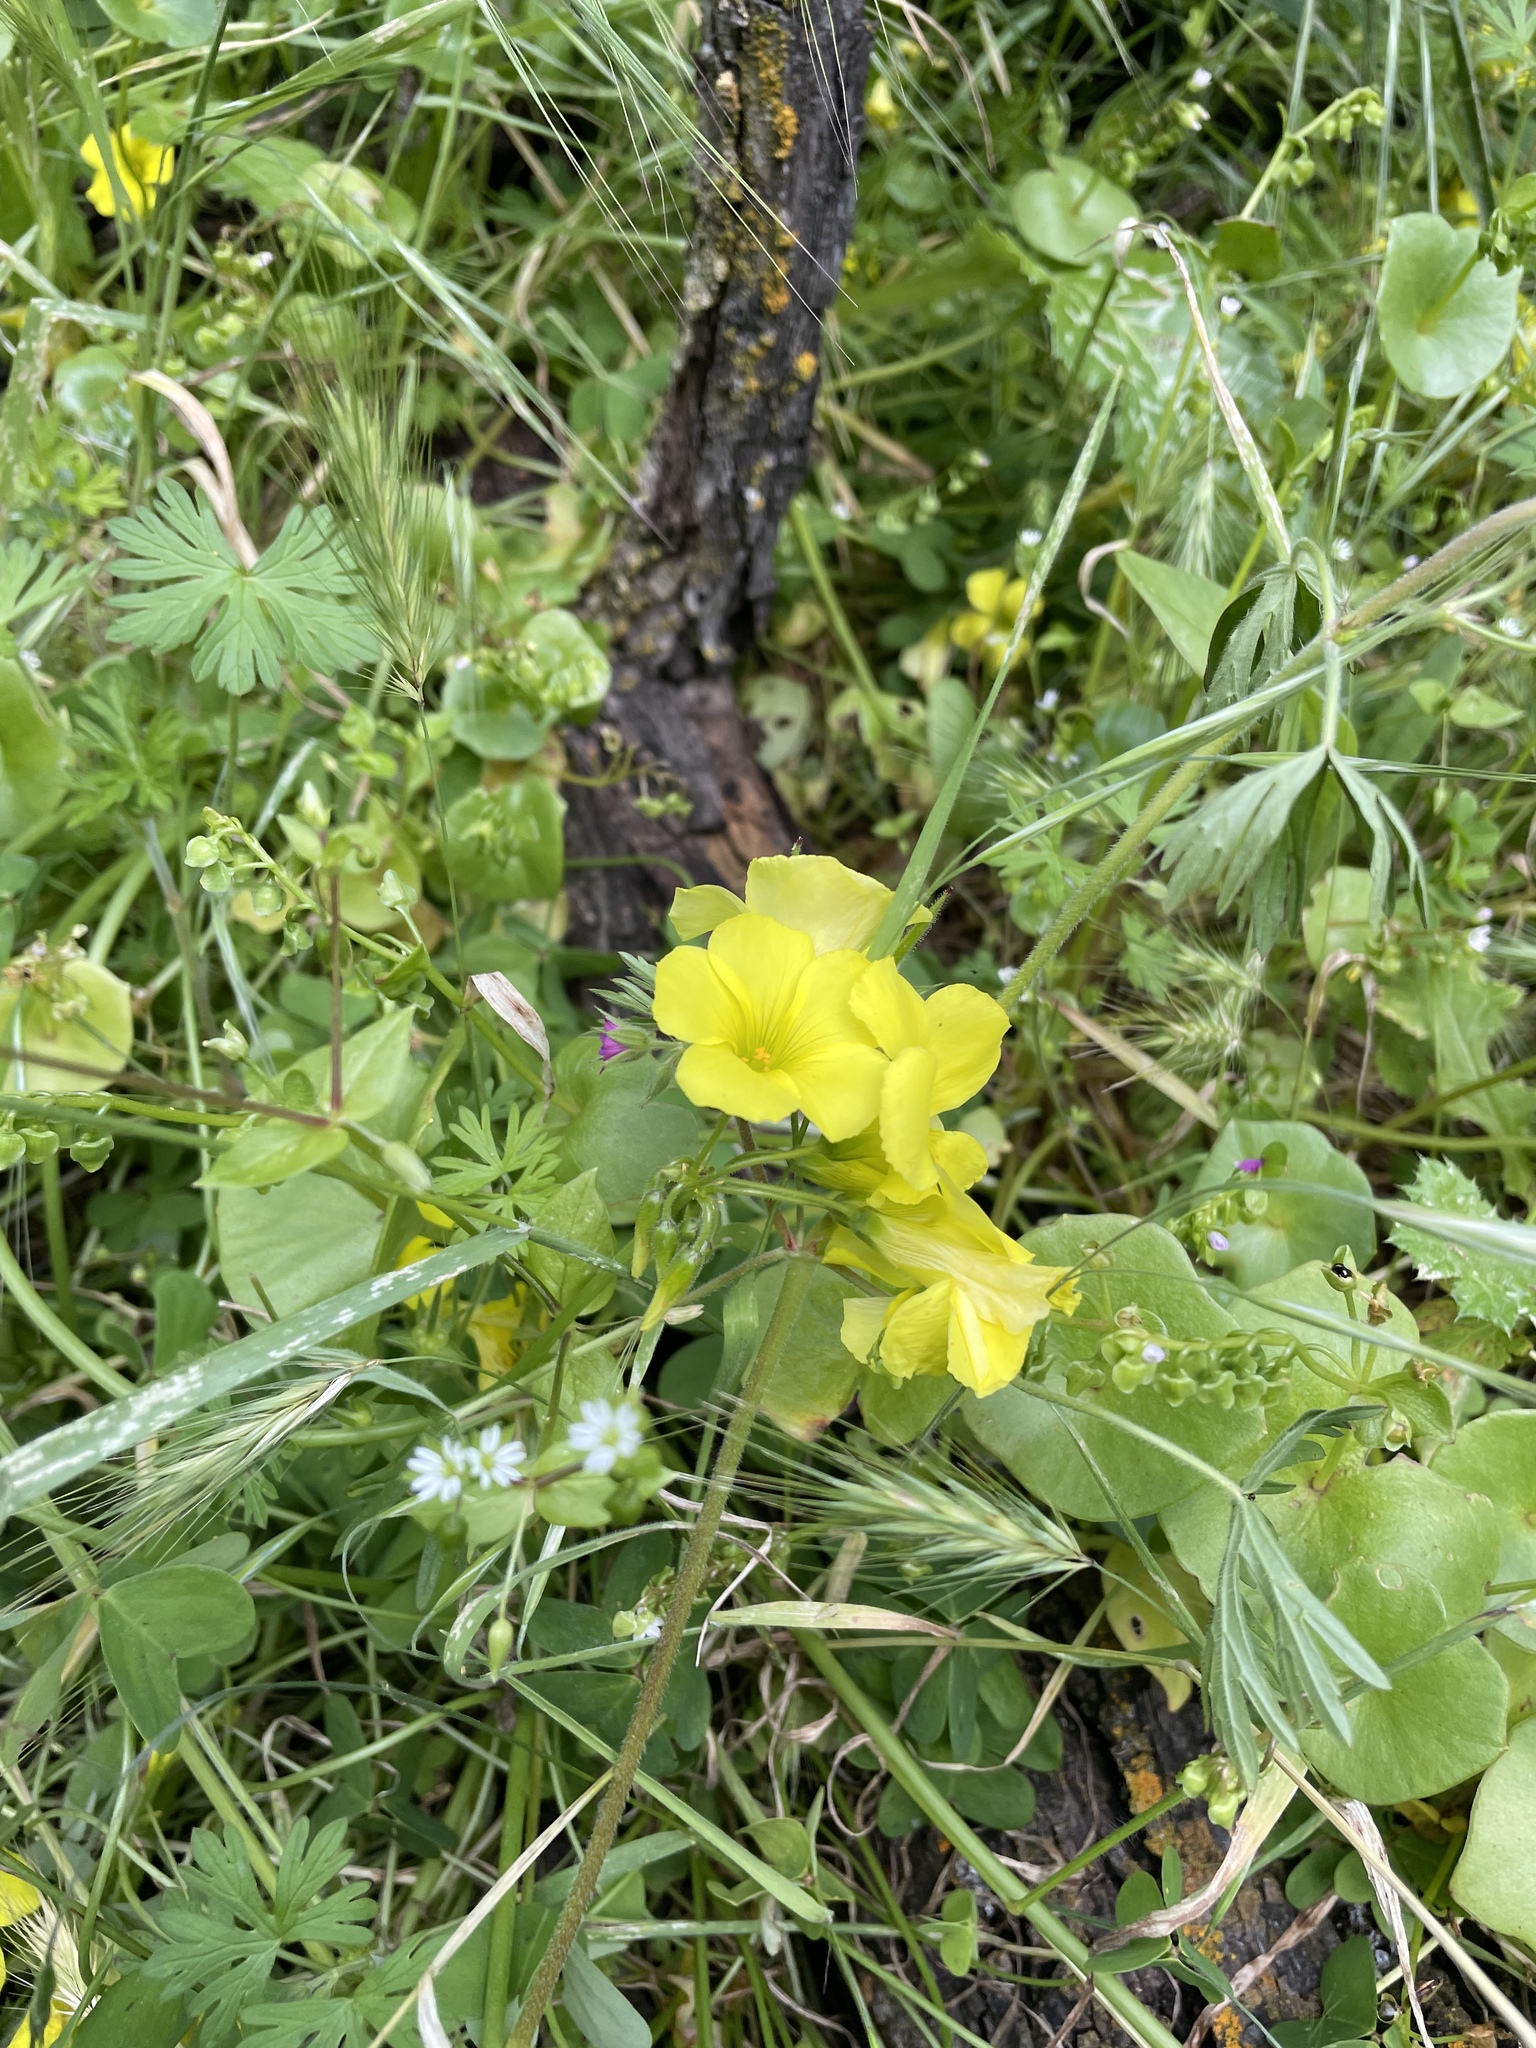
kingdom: Plantae
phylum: Tracheophyta
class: Magnoliopsida
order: Oxalidales
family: Oxalidaceae
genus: Oxalis
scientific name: Oxalis pes-caprae
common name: Bermuda-buttercup
